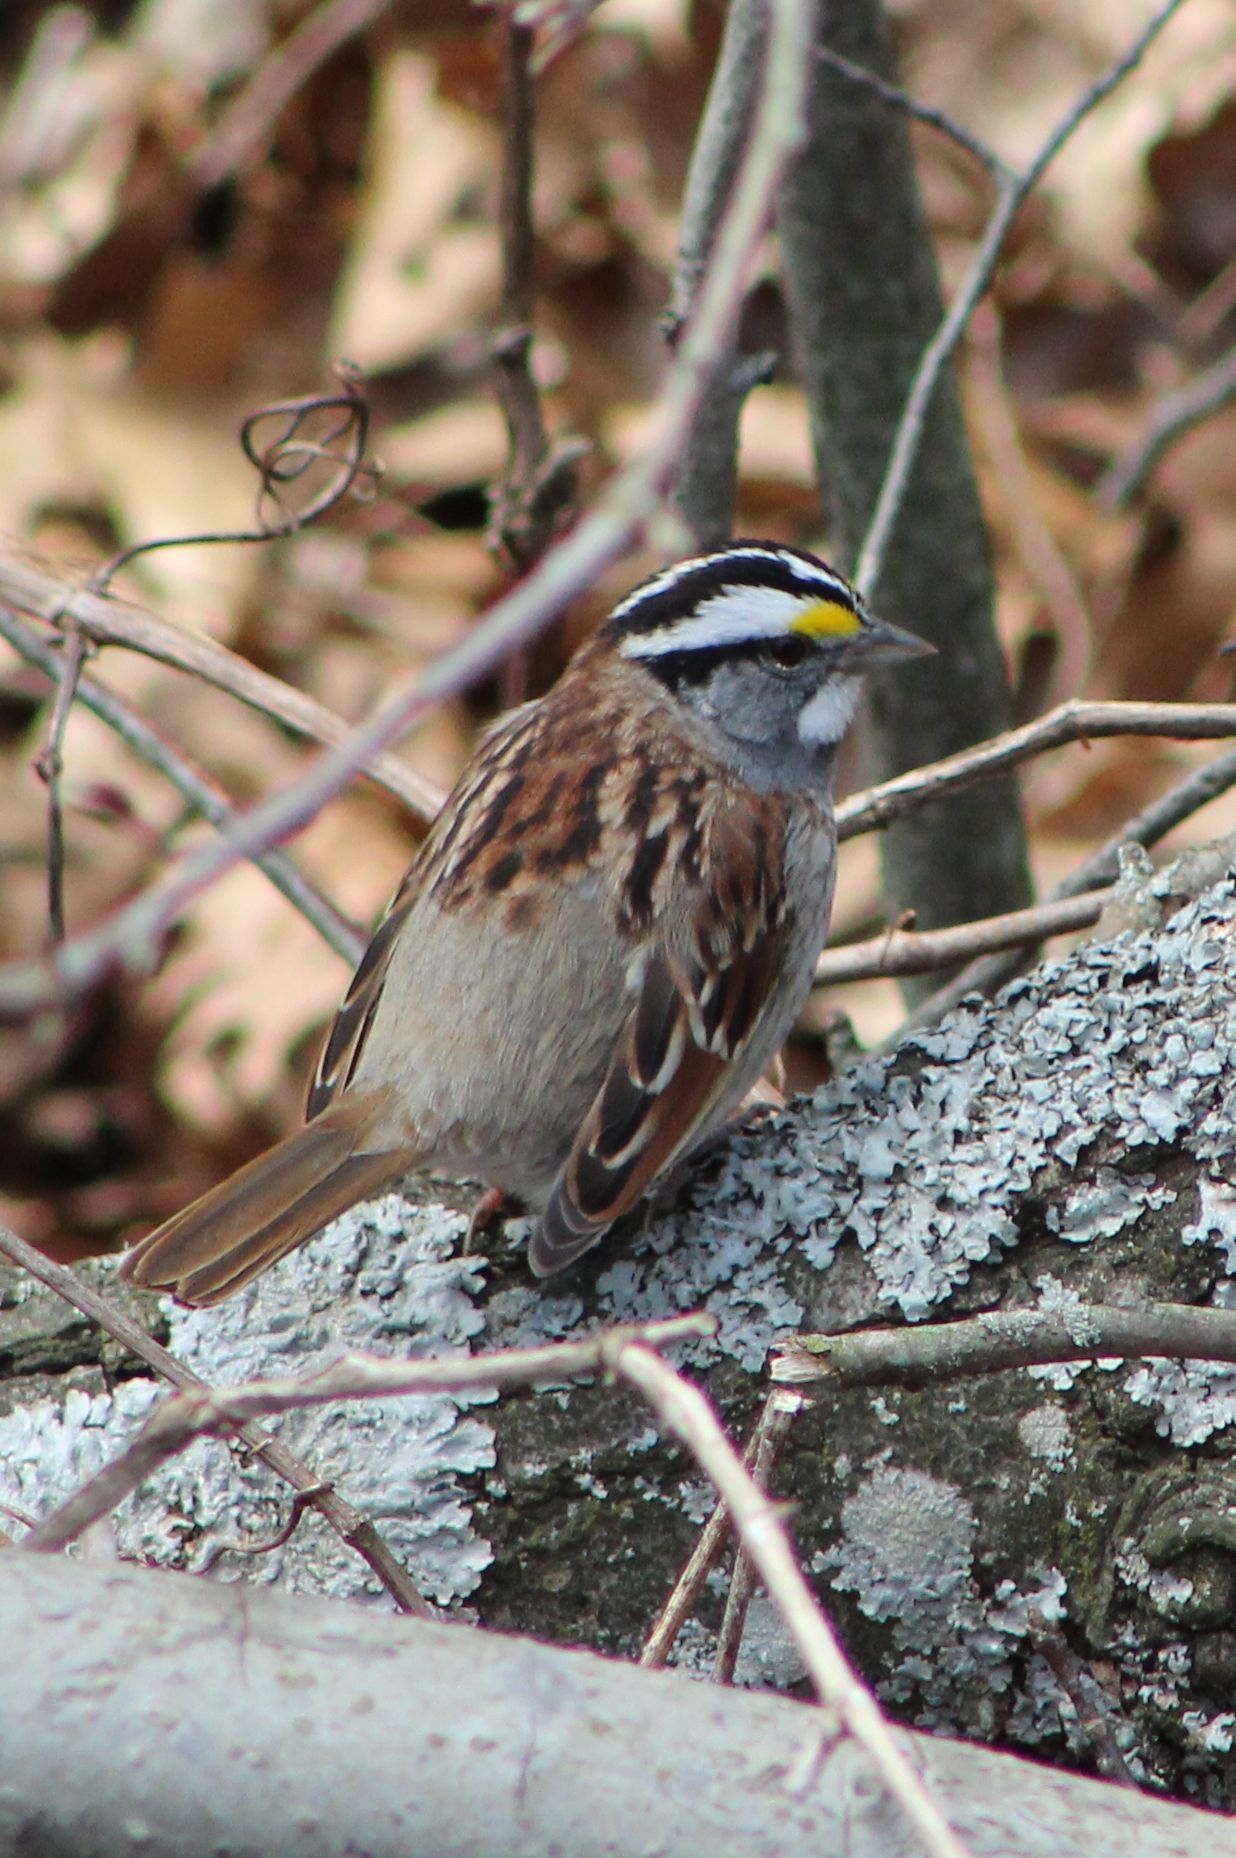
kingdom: Animalia
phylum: Chordata
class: Aves
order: Passeriformes
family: Passerellidae
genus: Zonotrichia
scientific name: Zonotrichia albicollis
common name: White-throated sparrow
